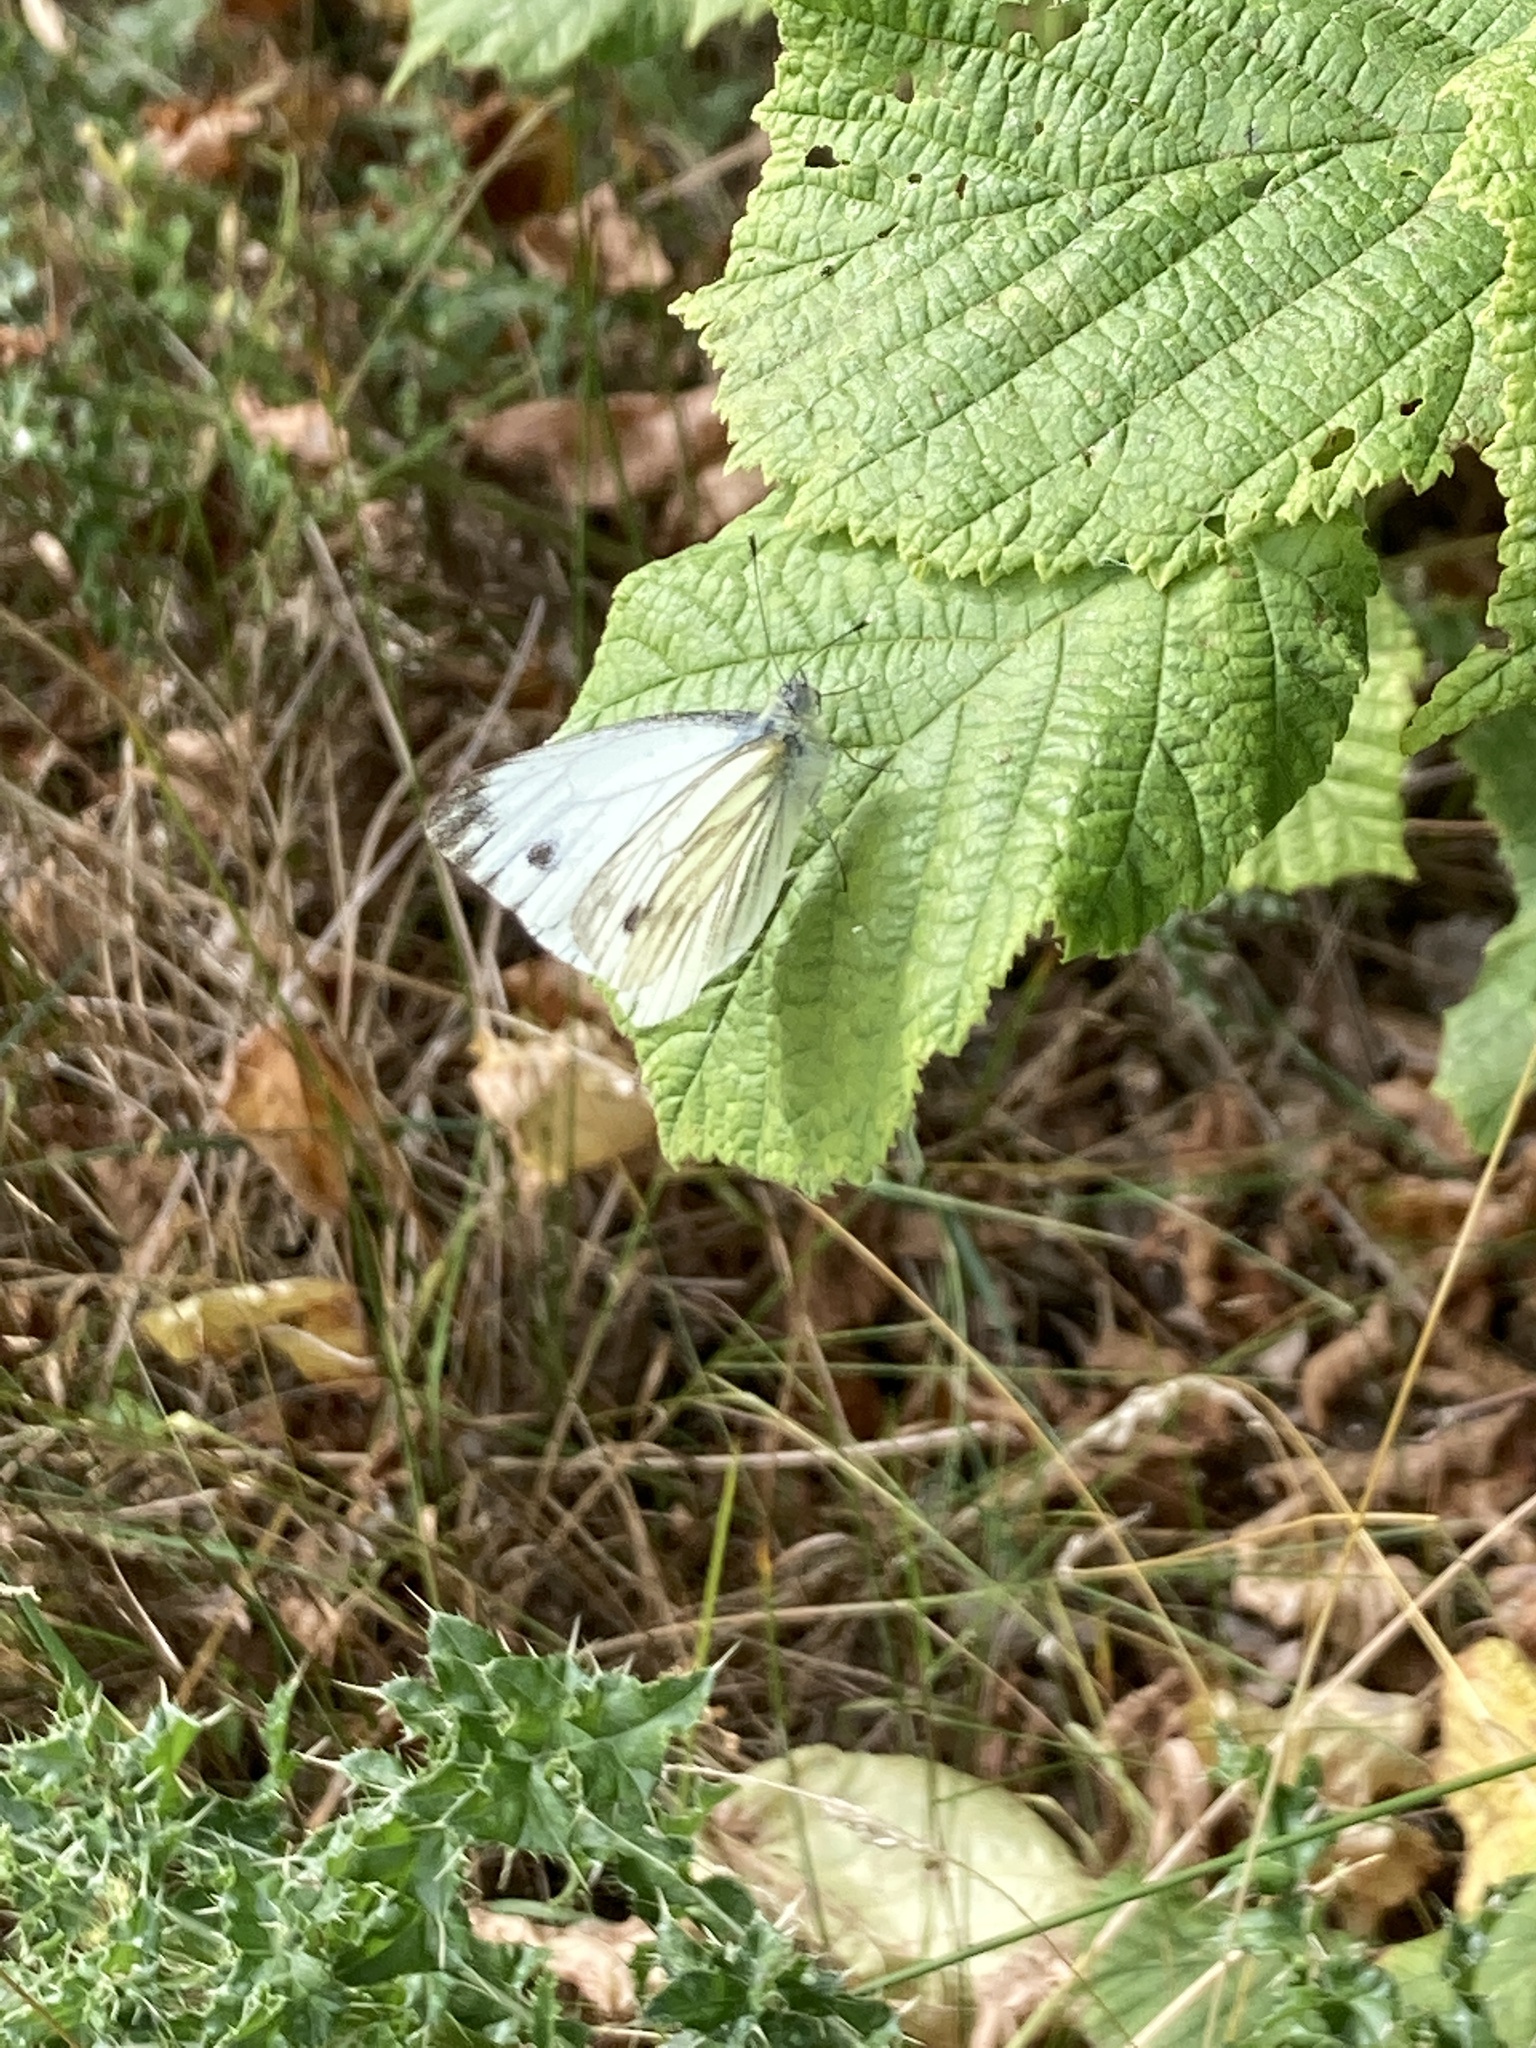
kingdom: Animalia
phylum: Arthropoda
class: Insecta
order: Lepidoptera
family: Pieridae
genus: Pieris
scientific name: Pieris napi
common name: Green-veined white
